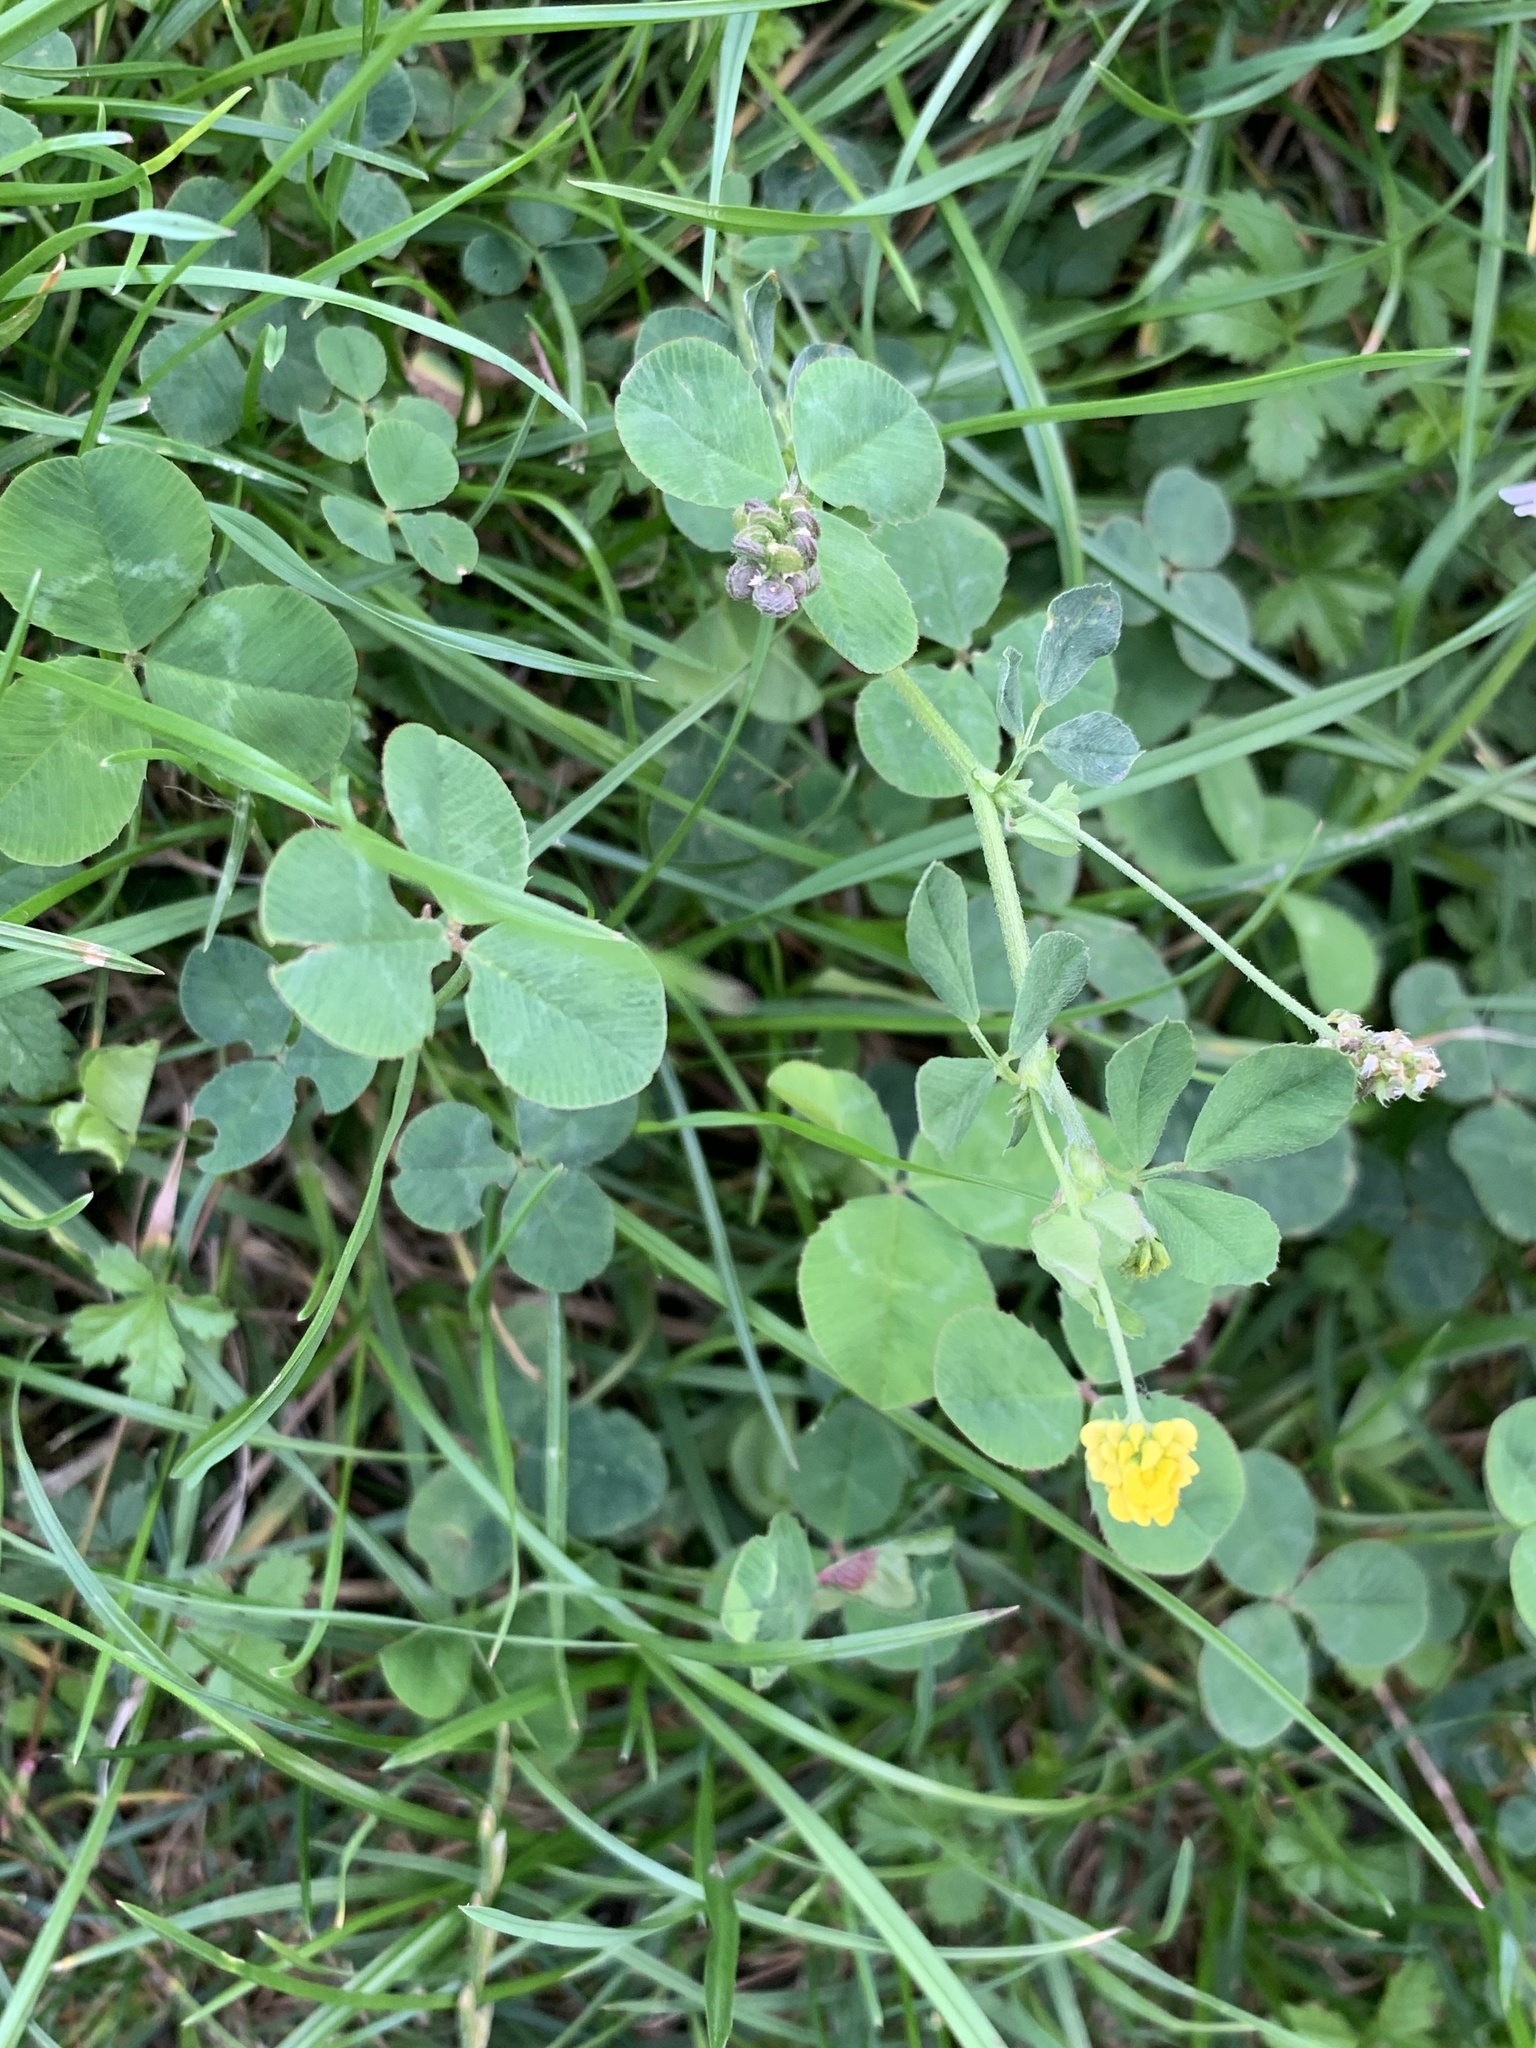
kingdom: Plantae
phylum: Tracheophyta
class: Magnoliopsida
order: Fabales
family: Fabaceae
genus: Medicago
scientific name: Medicago lupulina
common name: Black medick
